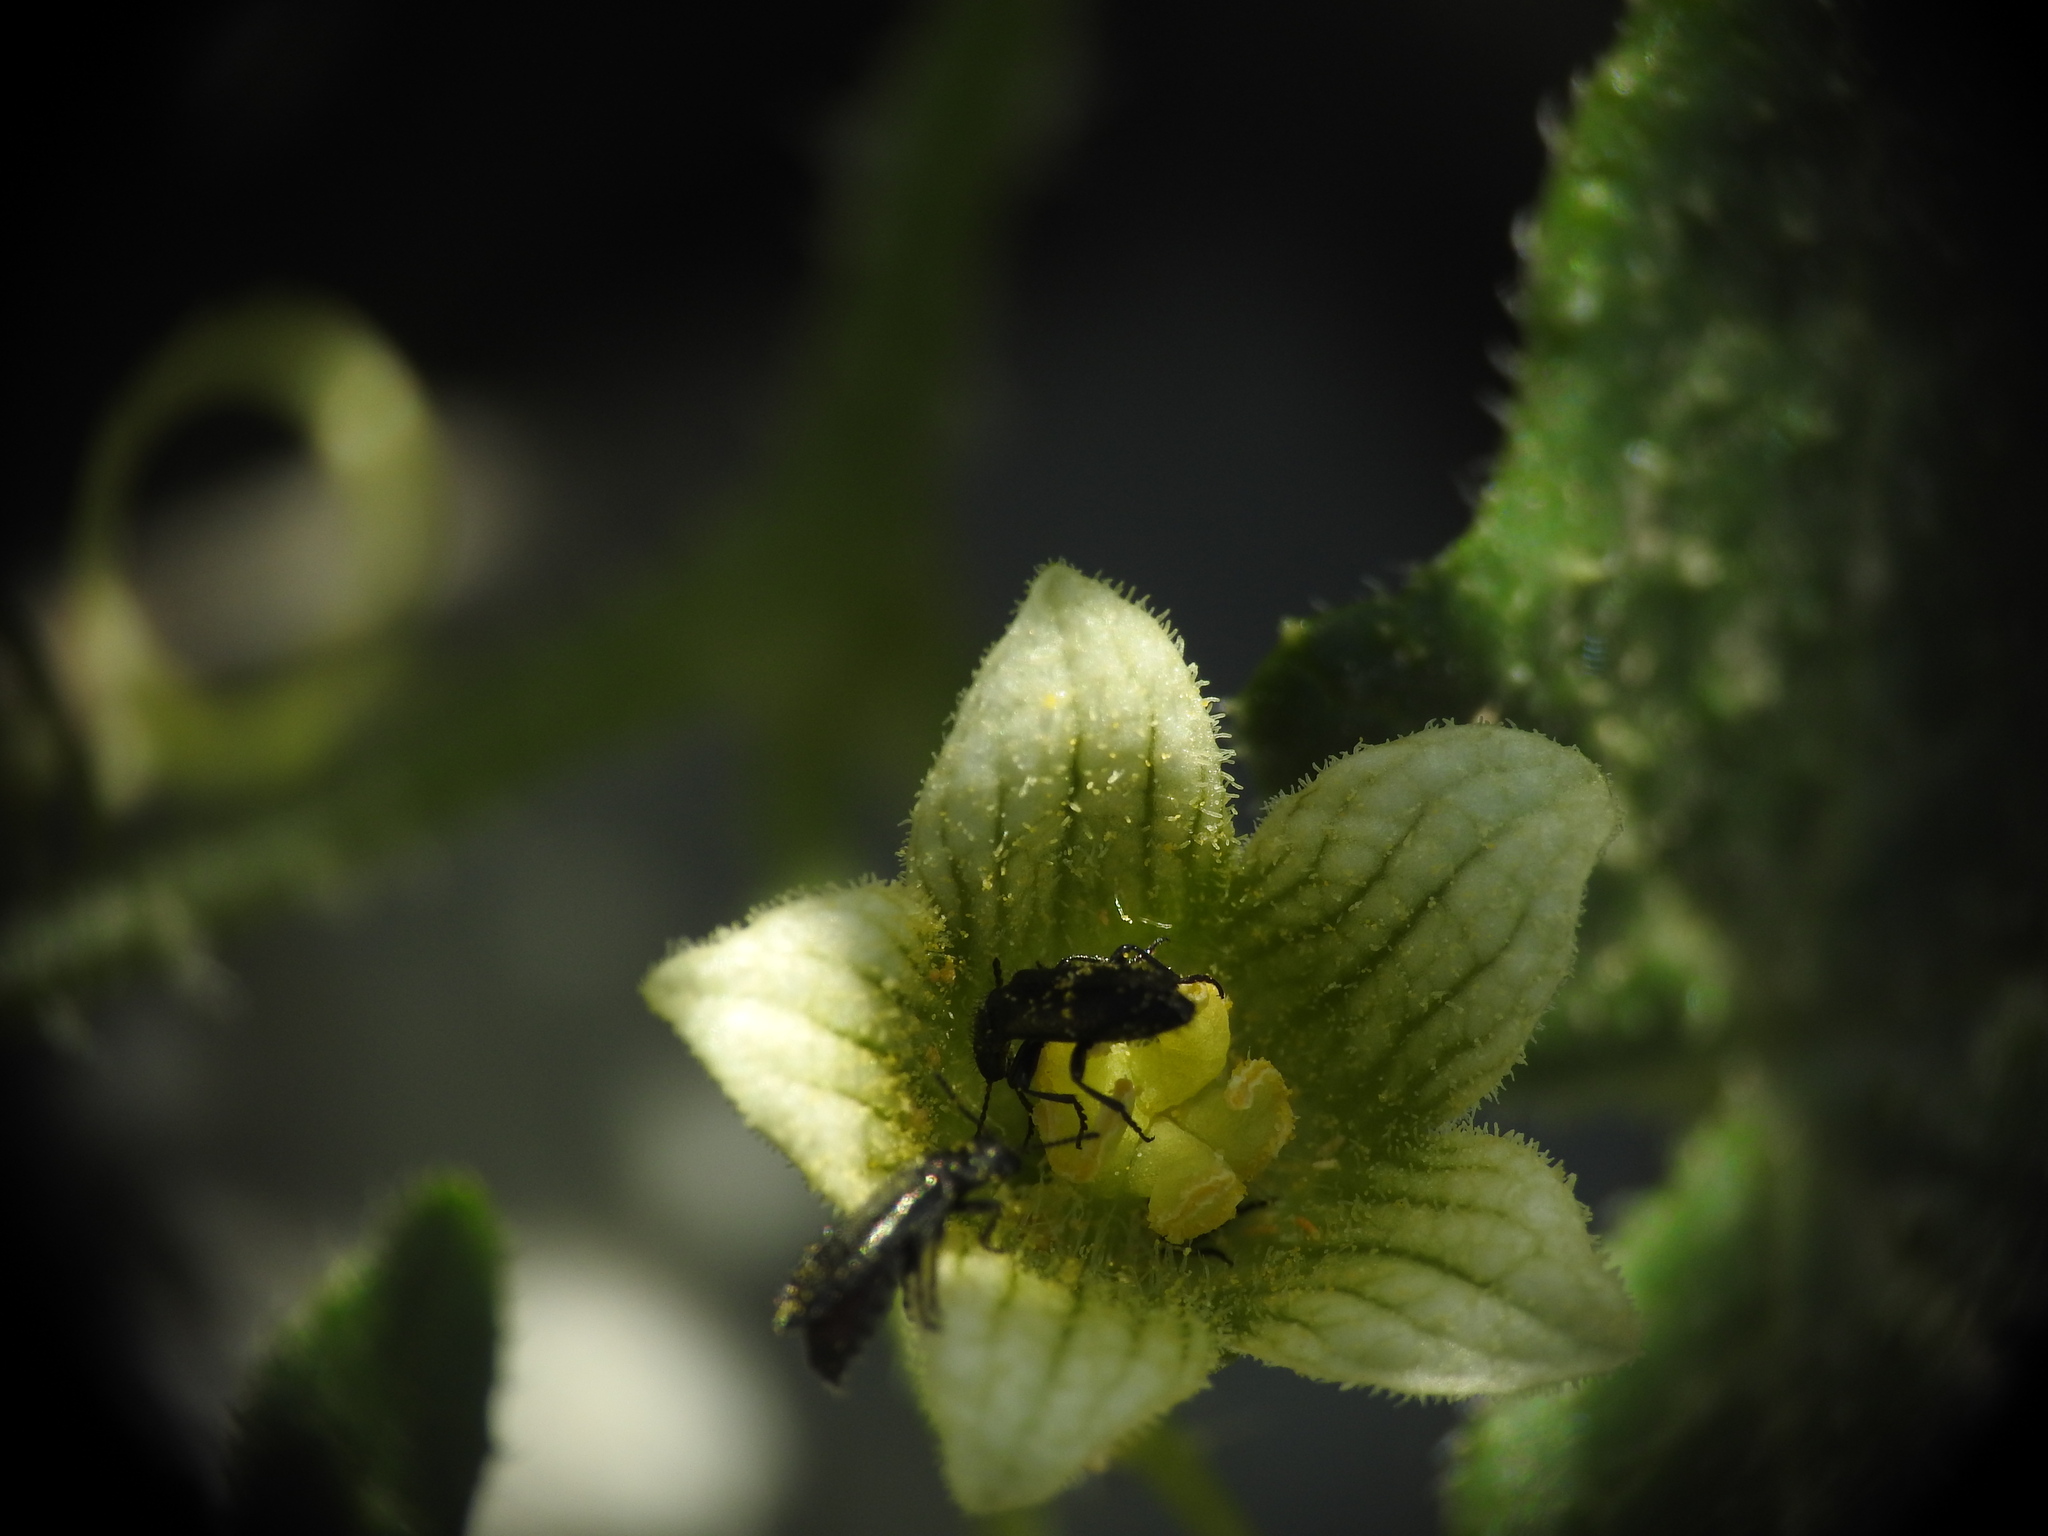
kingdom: Plantae
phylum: Tracheophyta
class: Magnoliopsida
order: Cucurbitales
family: Cucurbitaceae
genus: Bryonia
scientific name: Bryonia cretica
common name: Cretan bryony
